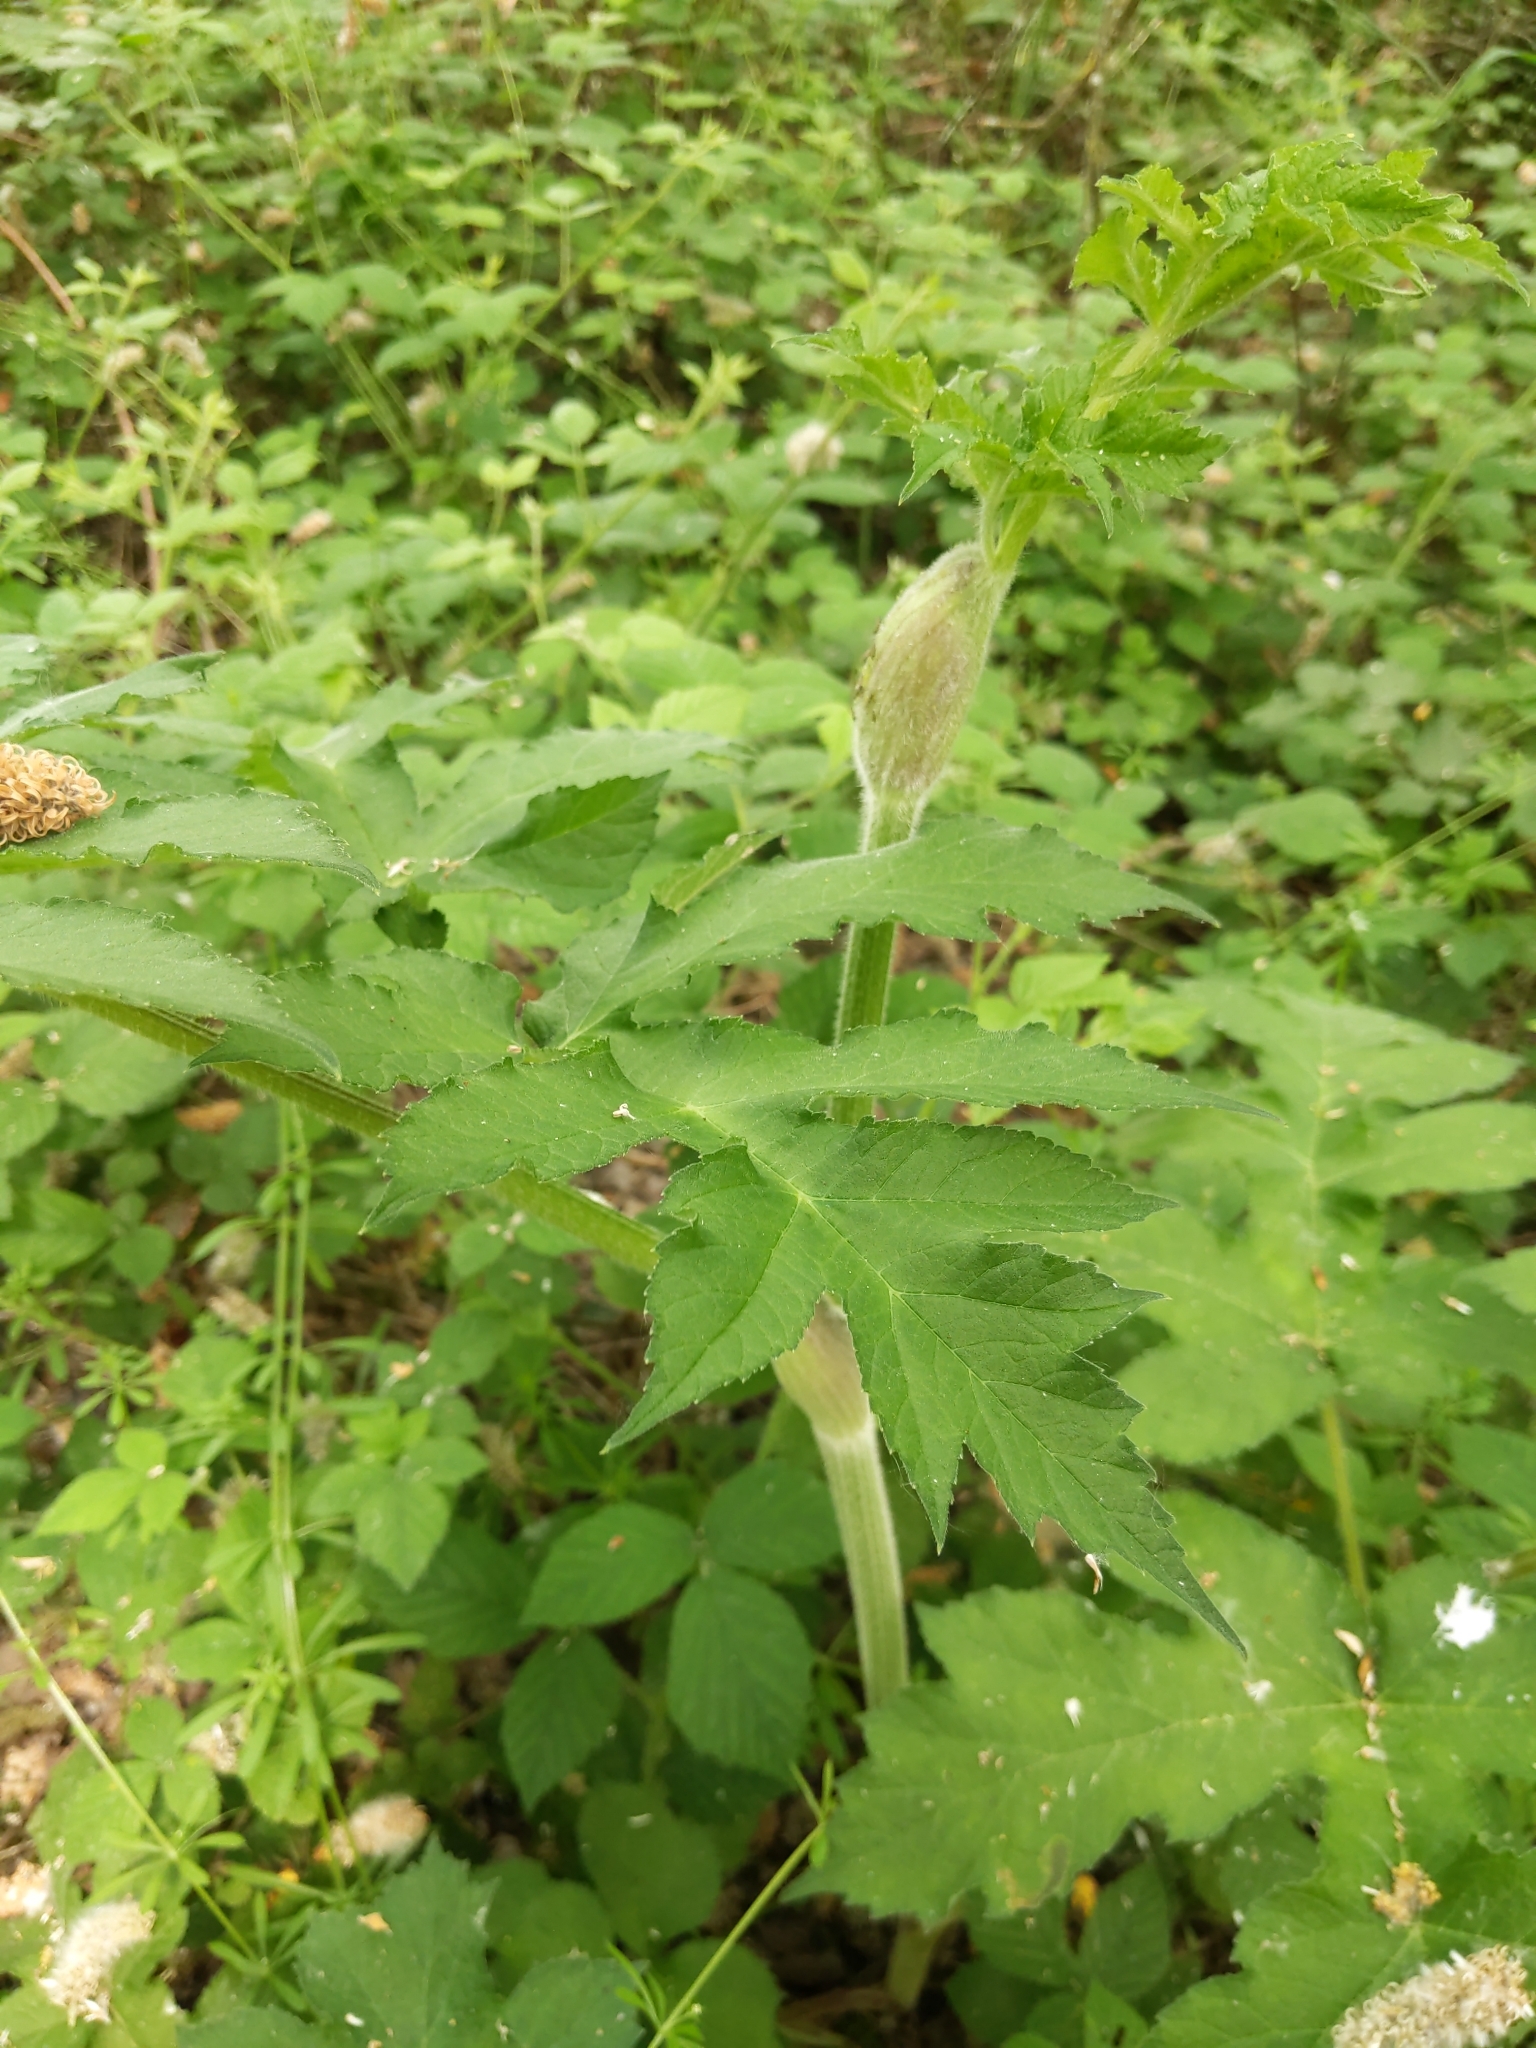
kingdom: Plantae
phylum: Tracheophyta
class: Magnoliopsida
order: Apiales
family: Apiaceae
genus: Heracleum
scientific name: Heracleum sphondylium
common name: Hogweed
